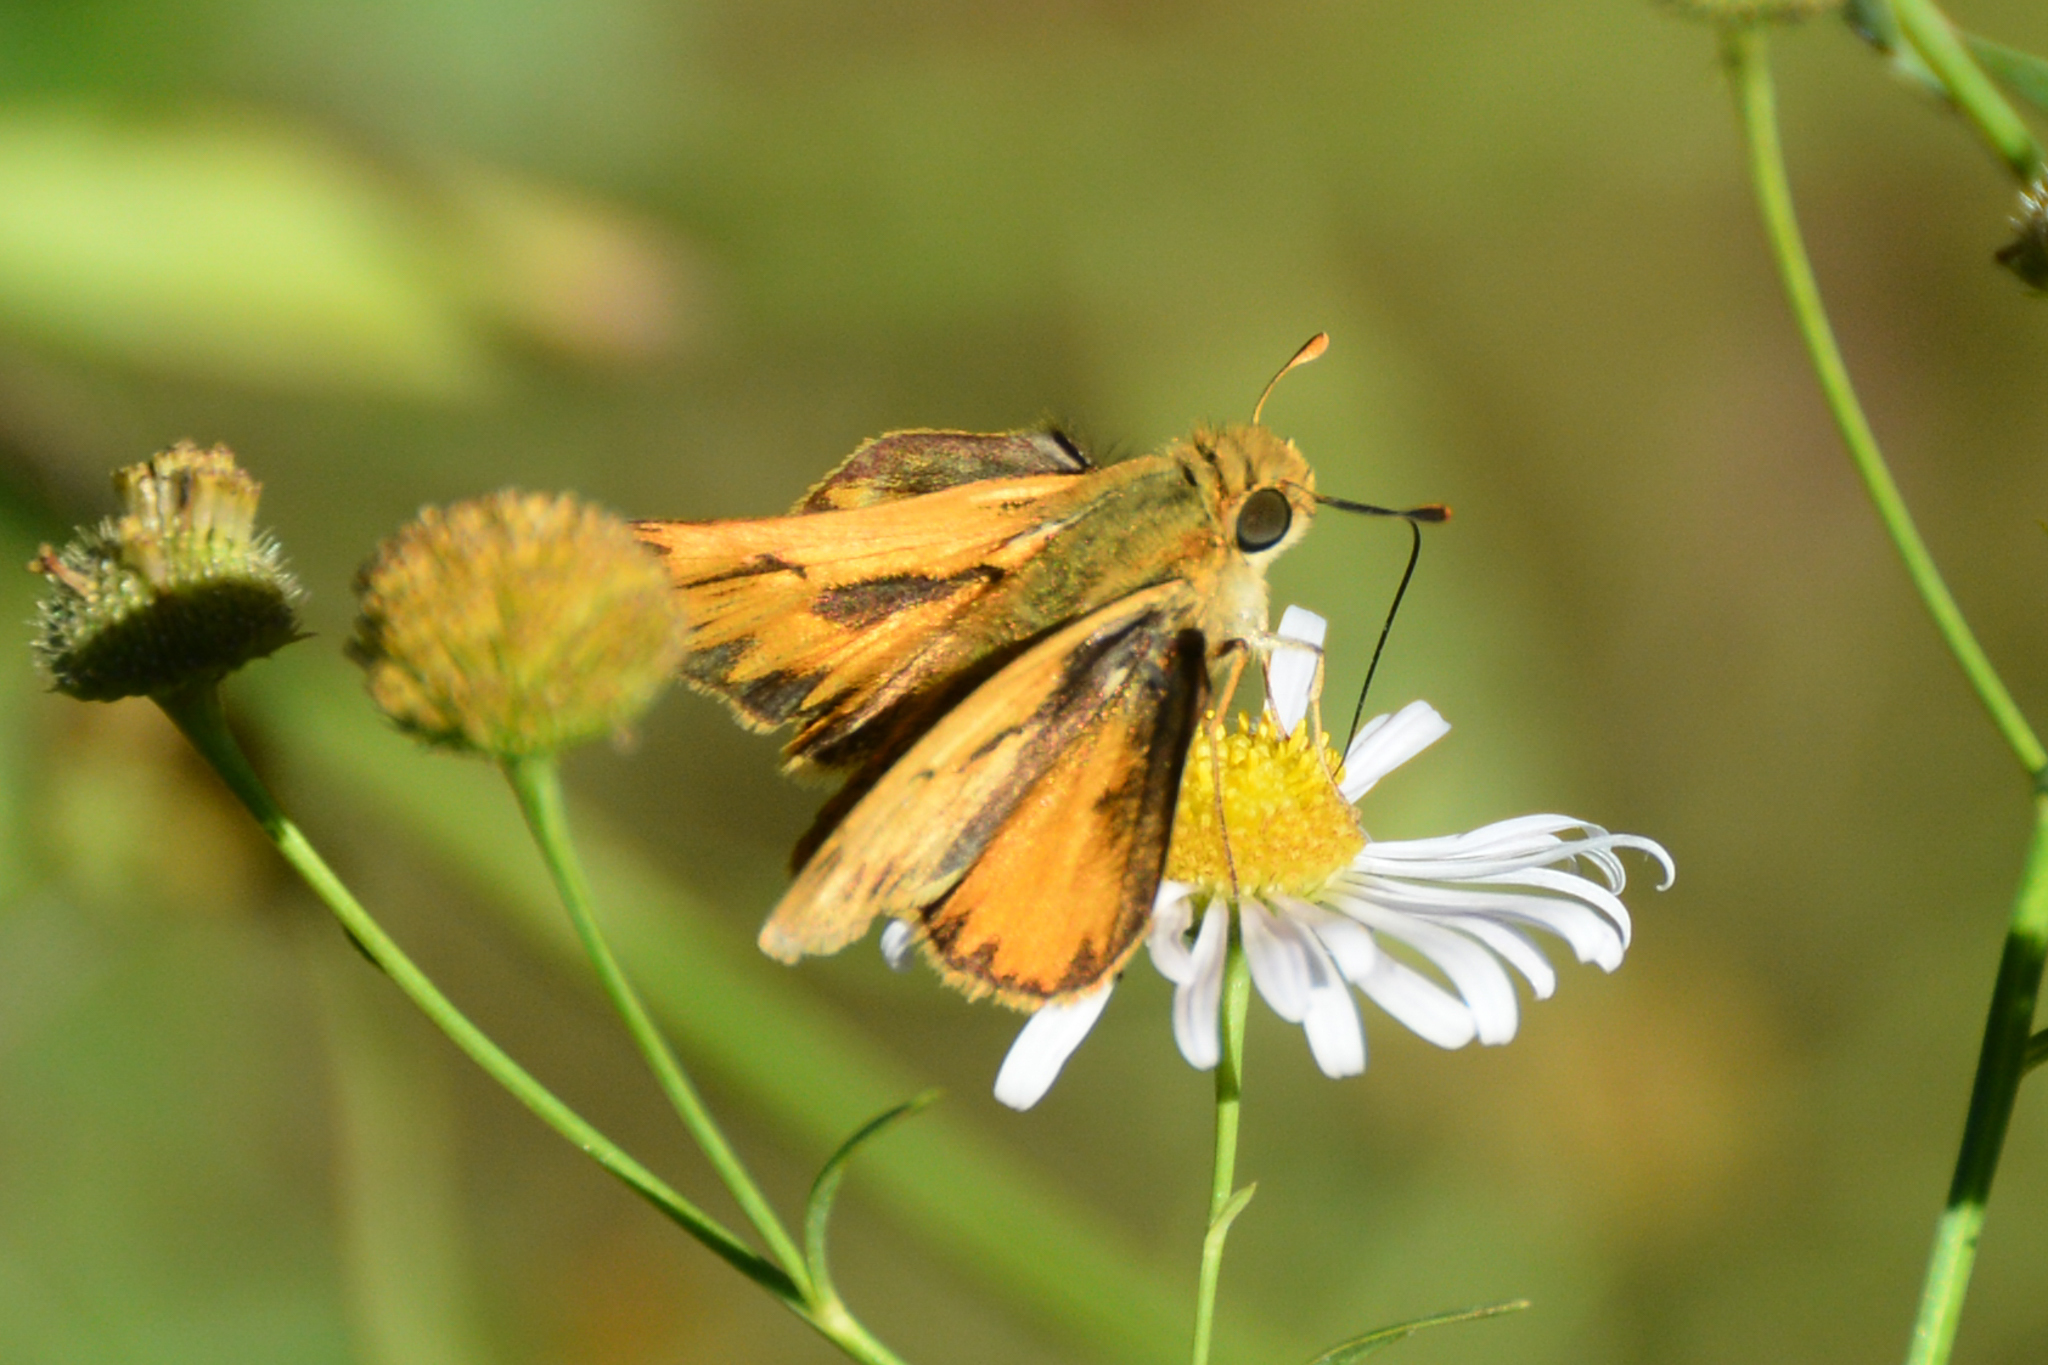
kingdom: Animalia
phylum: Arthropoda
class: Insecta
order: Lepidoptera
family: Hesperiidae
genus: Hylephila
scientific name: Hylephila phyleus
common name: Fiery skipper
